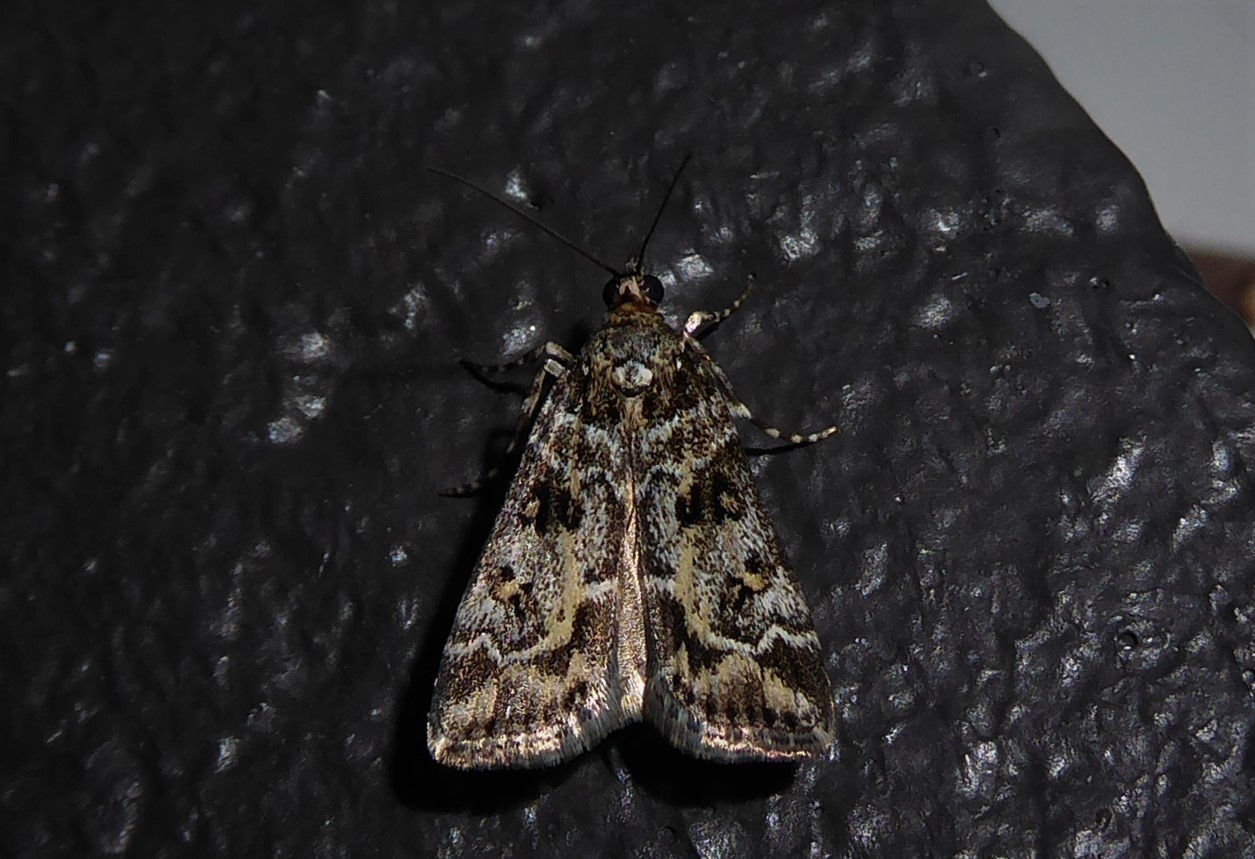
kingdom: Animalia
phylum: Arthropoda
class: Insecta
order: Lepidoptera
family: Crambidae
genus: Eudonia
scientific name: Eudonia diphtheralis
